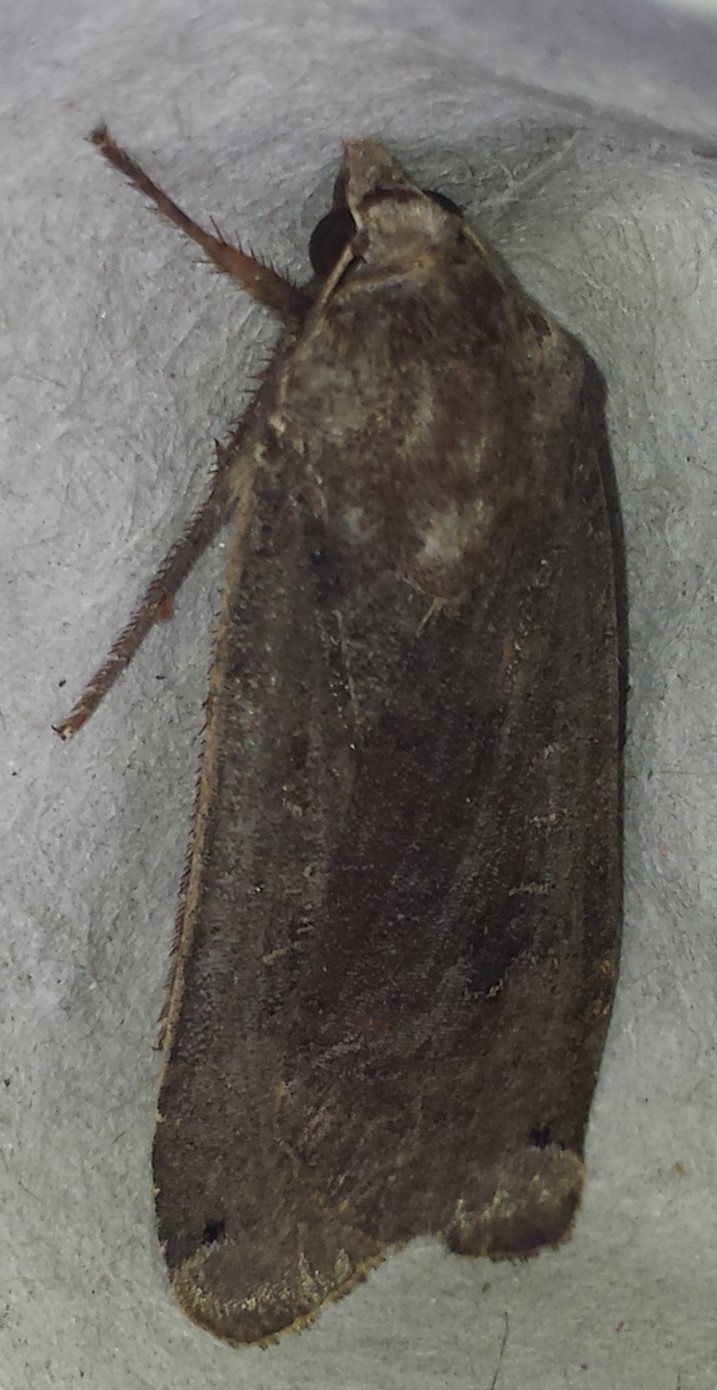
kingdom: Animalia
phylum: Arthropoda
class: Insecta
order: Lepidoptera
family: Noctuidae
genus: Noctua
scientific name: Noctua pronuba
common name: Large yellow underwing
